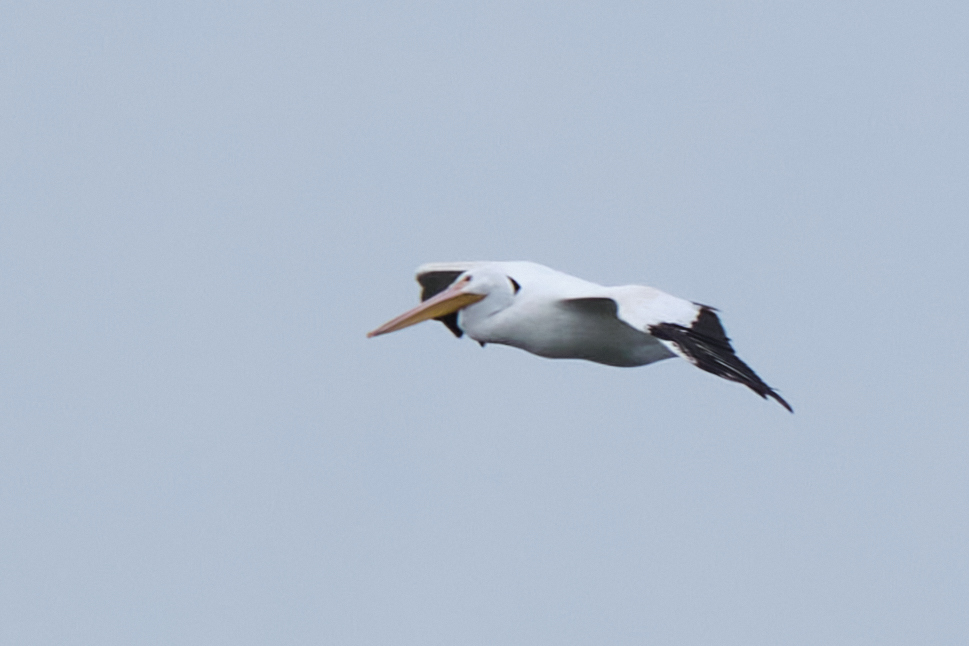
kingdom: Animalia
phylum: Chordata
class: Aves
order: Pelecaniformes
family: Pelecanidae
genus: Pelecanus
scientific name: Pelecanus erythrorhynchos
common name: American white pelican
